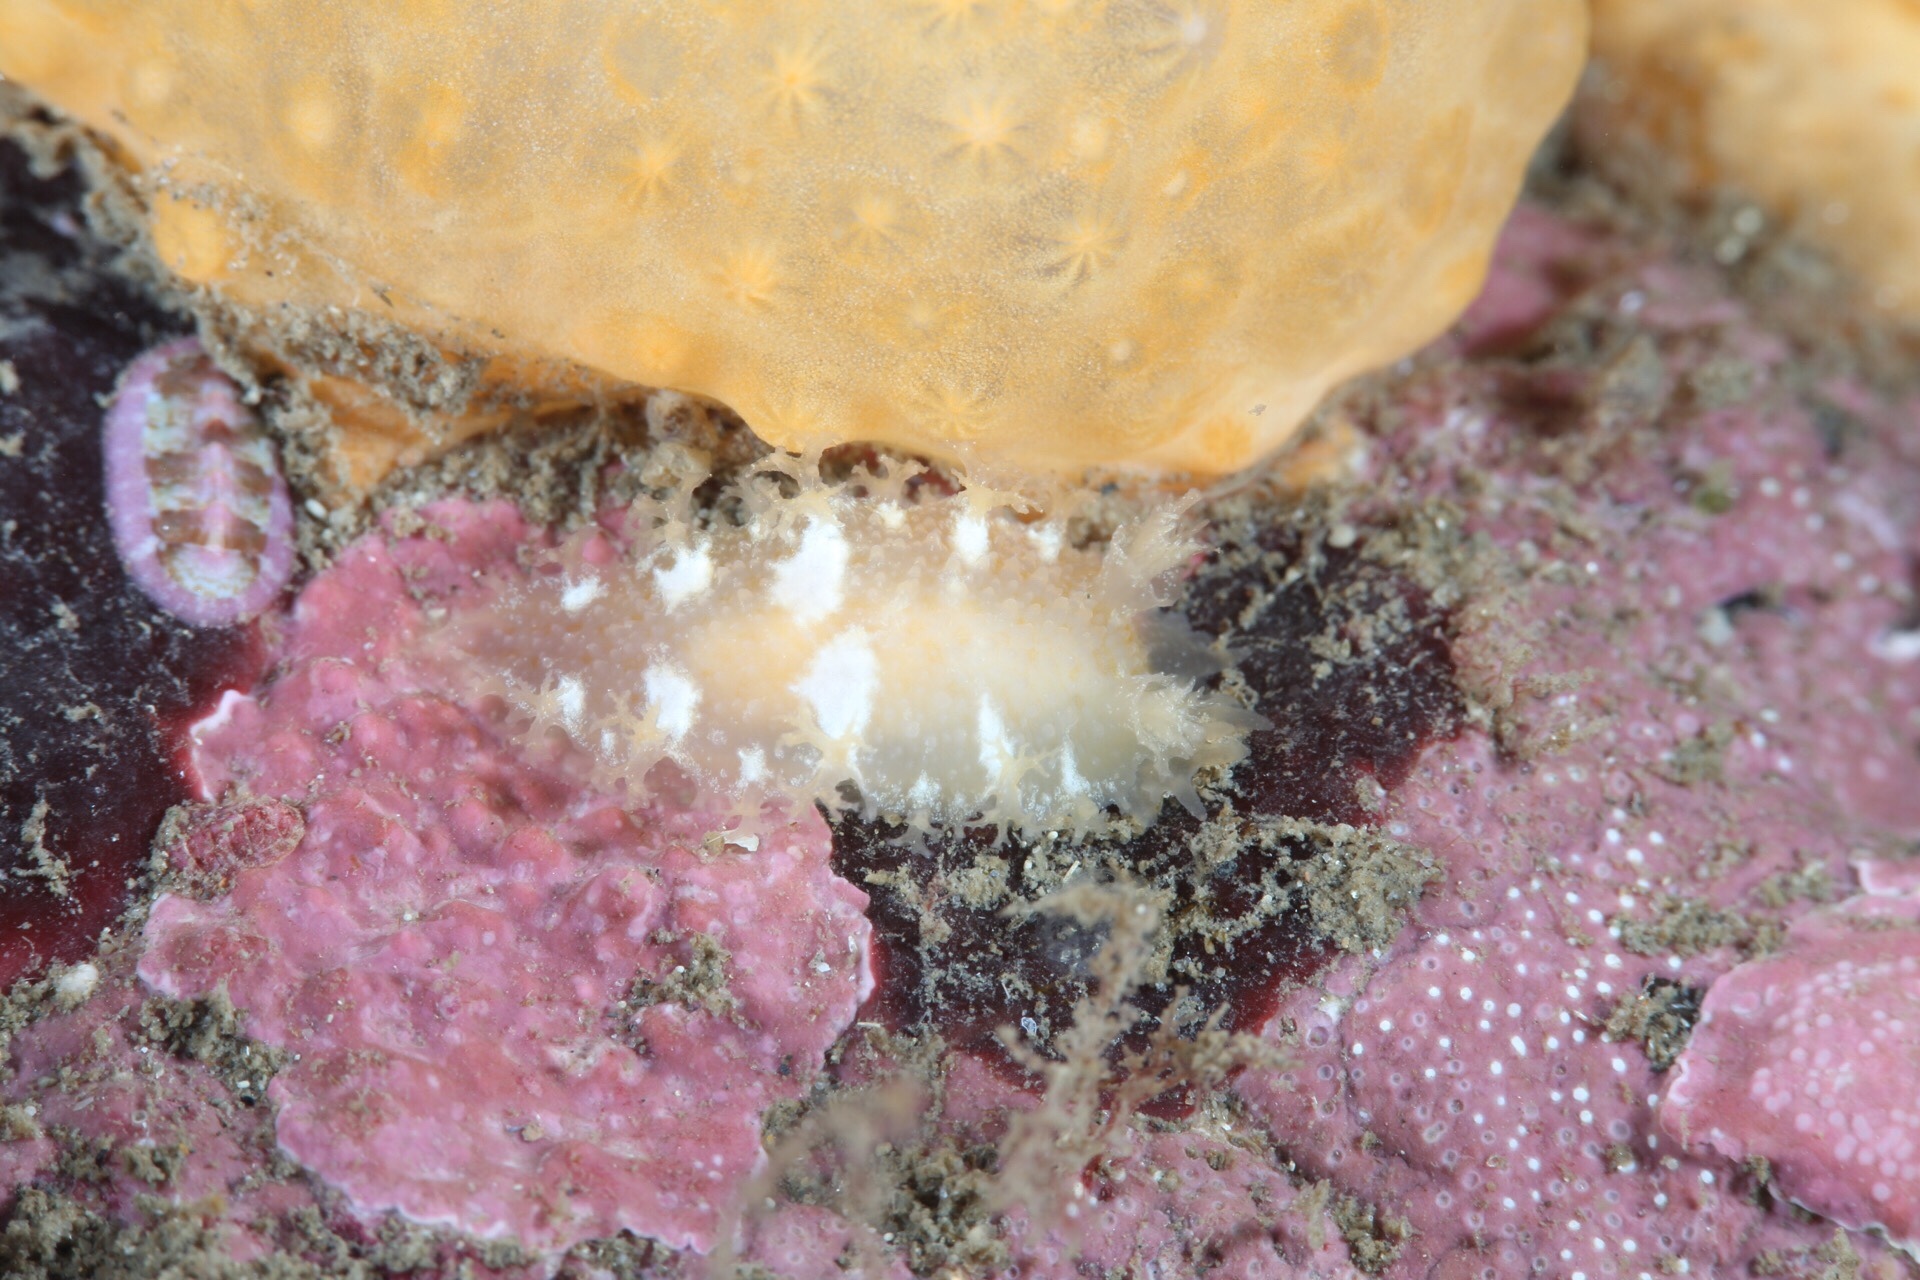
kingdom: Animalia
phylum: Mollusca
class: Gastropoda
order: Nudibranchia
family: Tritoniidae
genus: Tritonia
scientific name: Tritonia hombergii
